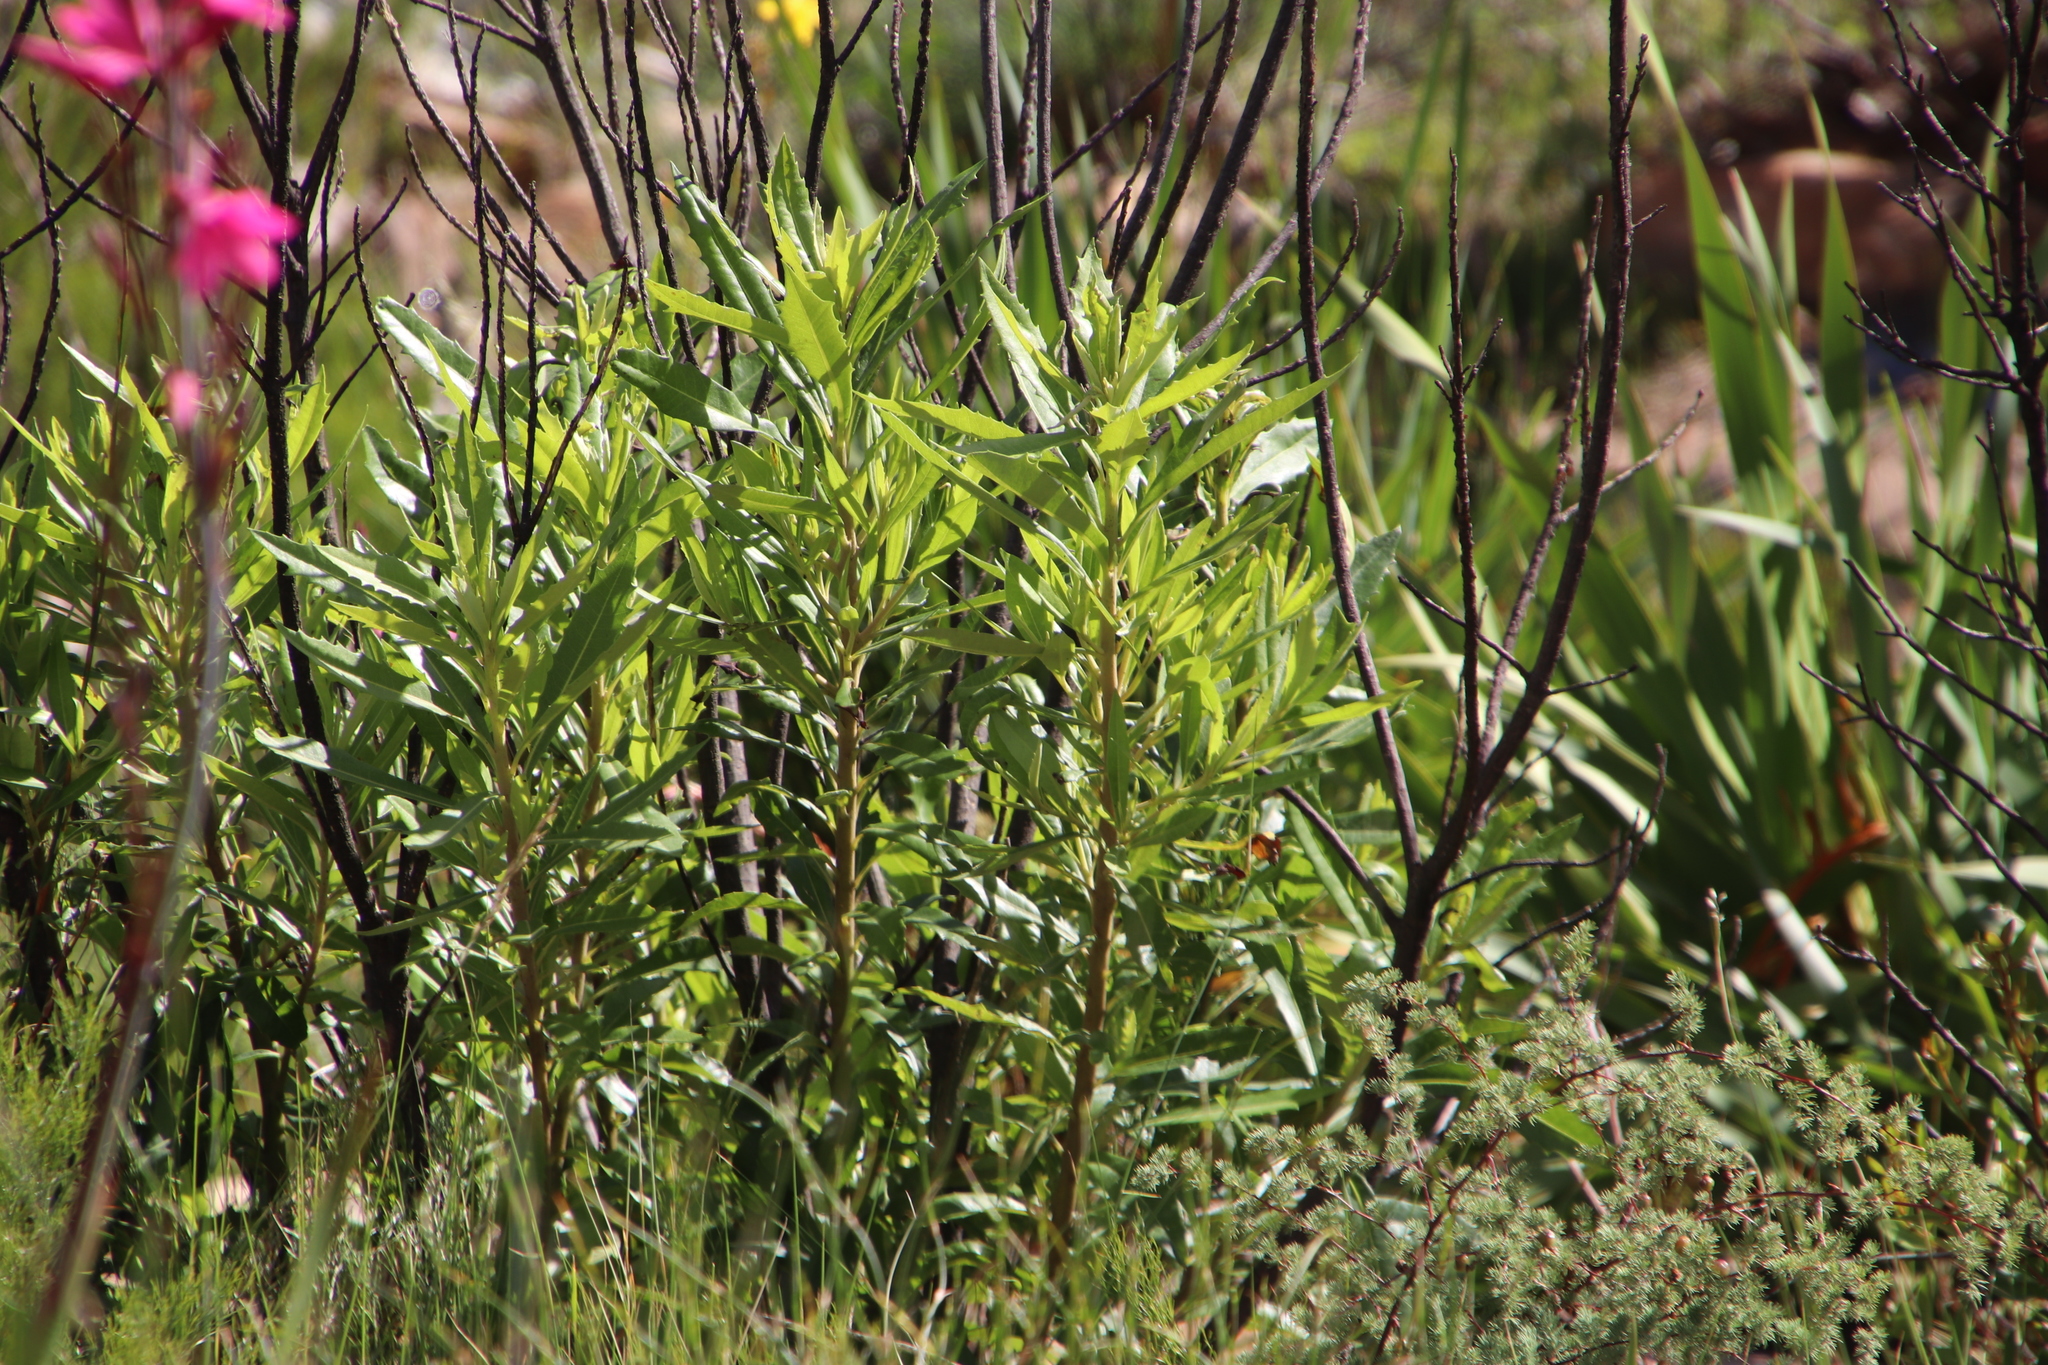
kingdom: Plantae
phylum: Tracheophyta
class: Magnoliopsida
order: Asterales
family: Asteraceae
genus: Brachylaena
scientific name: Brachylaena neriifolia
